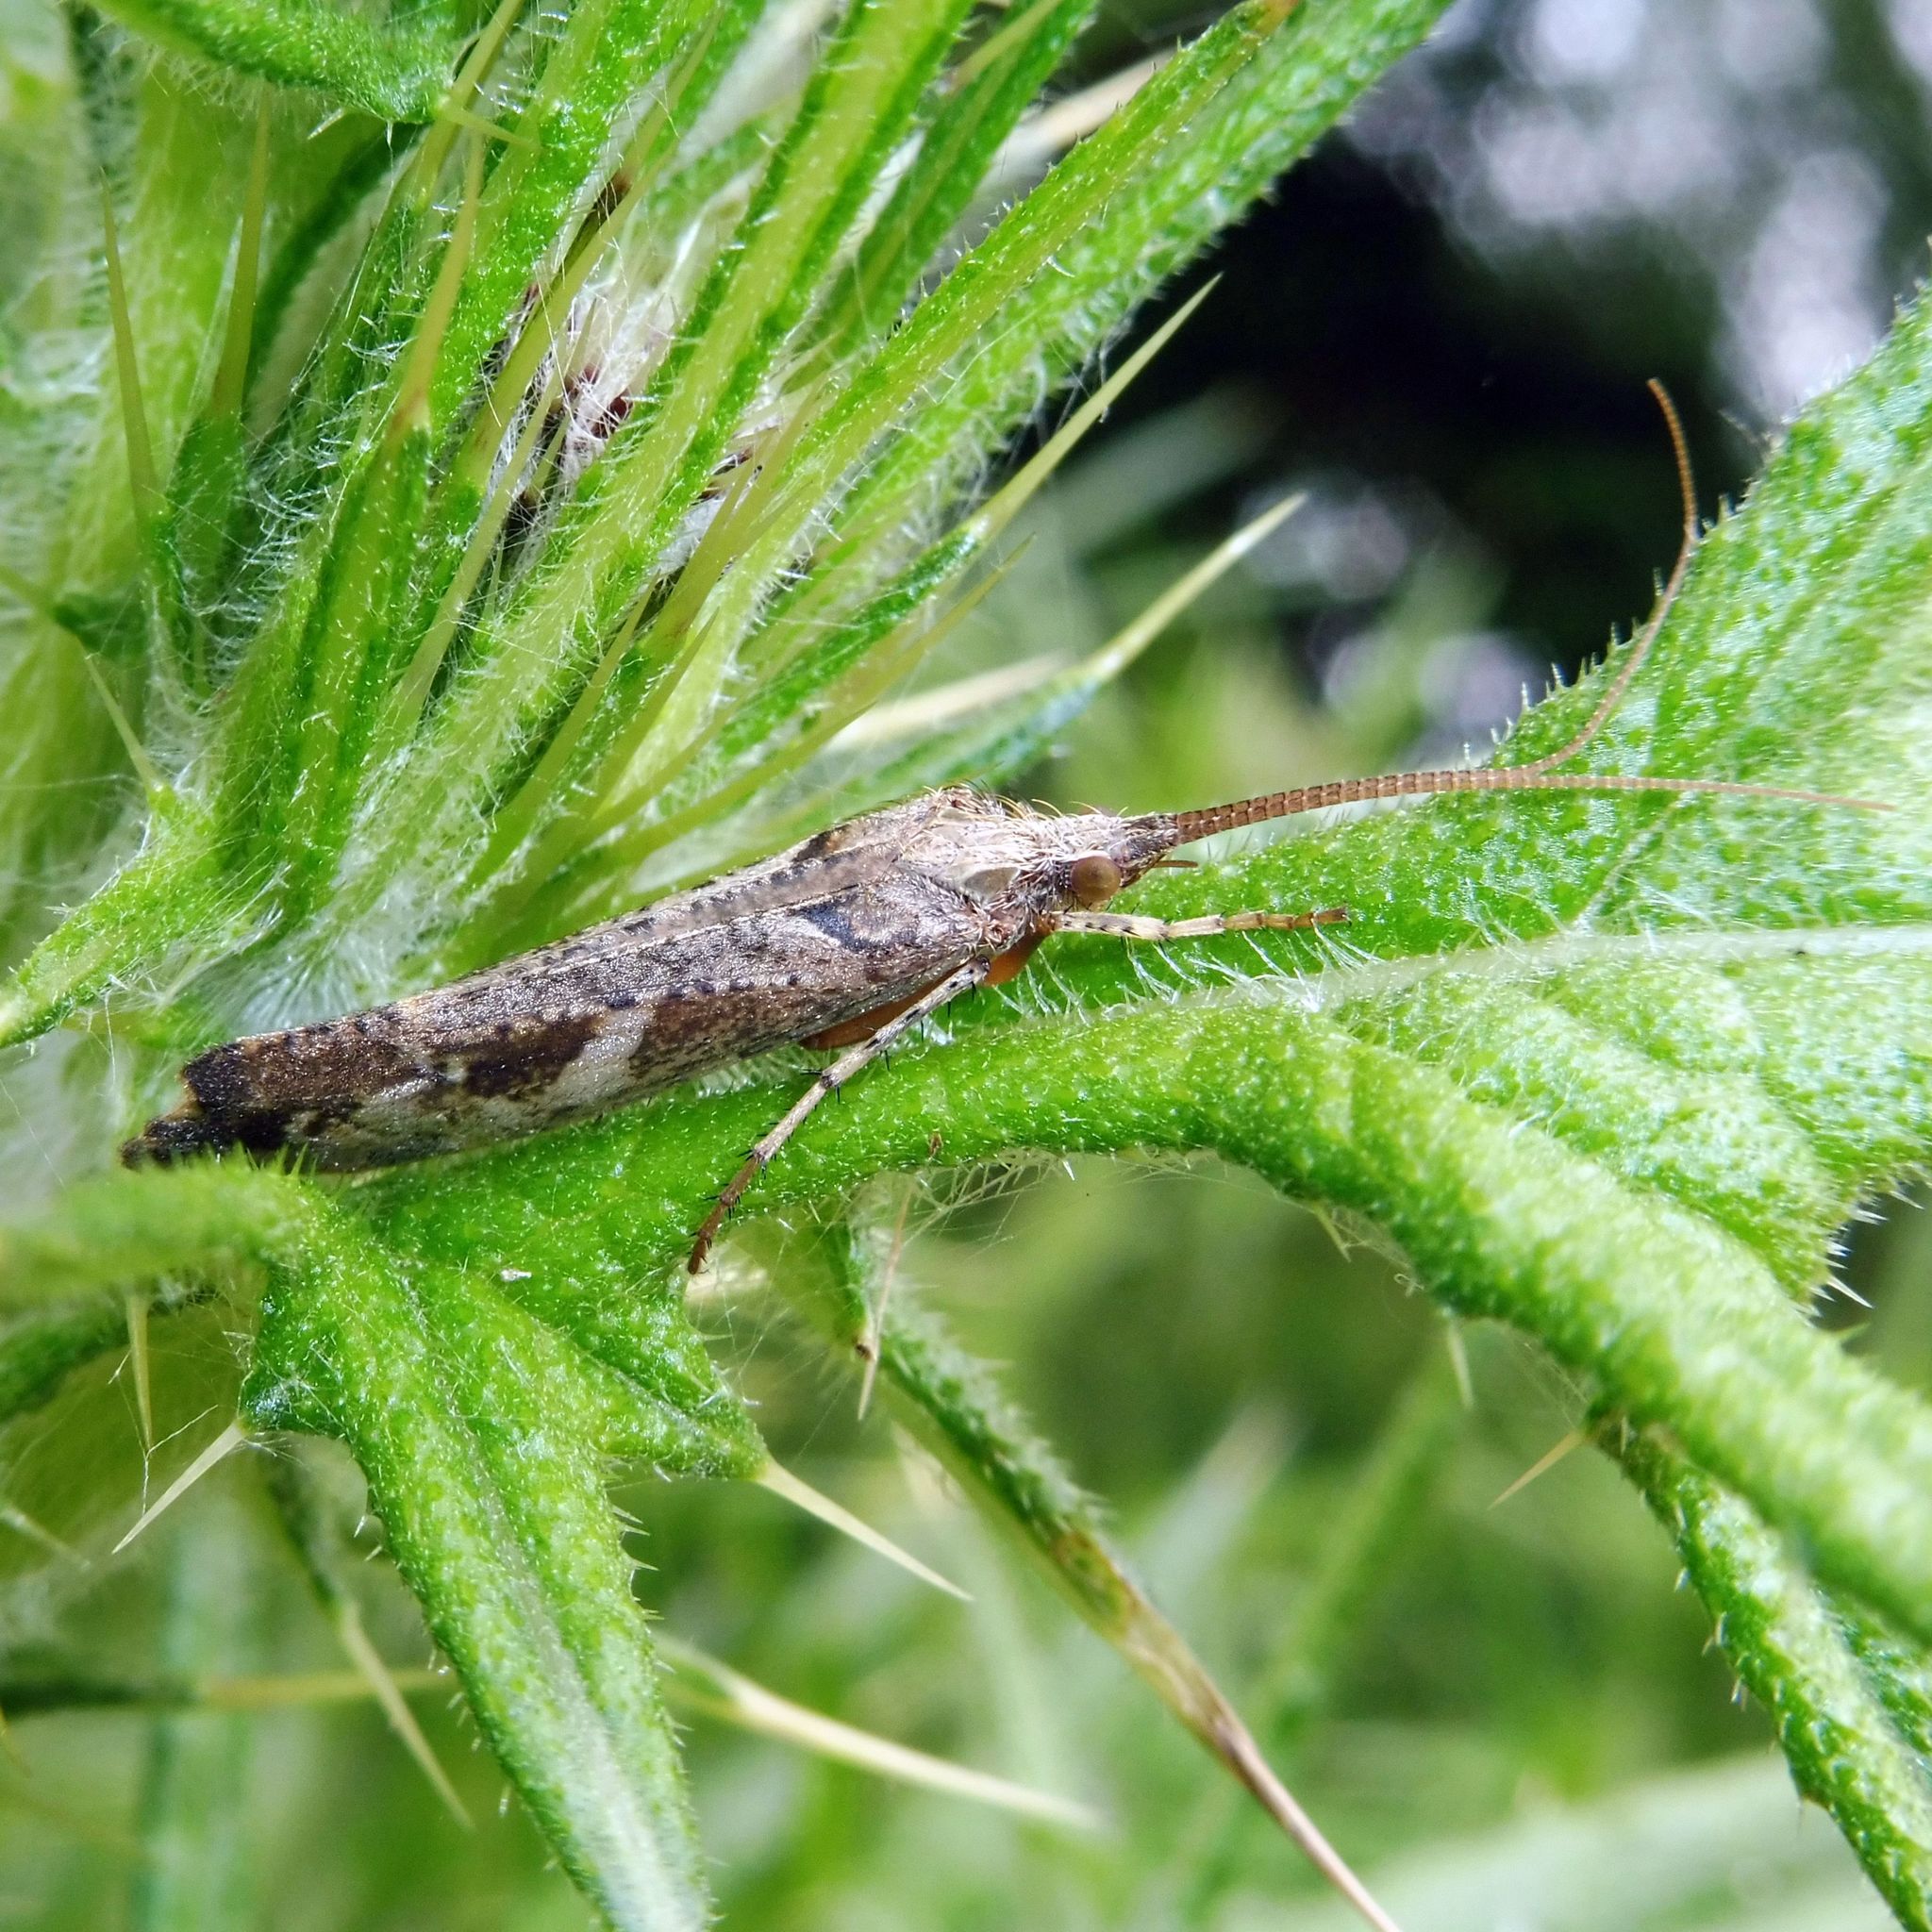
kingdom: Animalia
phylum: Arthropoda
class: Insecta
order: Trichoptera
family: Limnephilidae
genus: Glyphotaelius
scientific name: Glyphotaelius pellucidus
